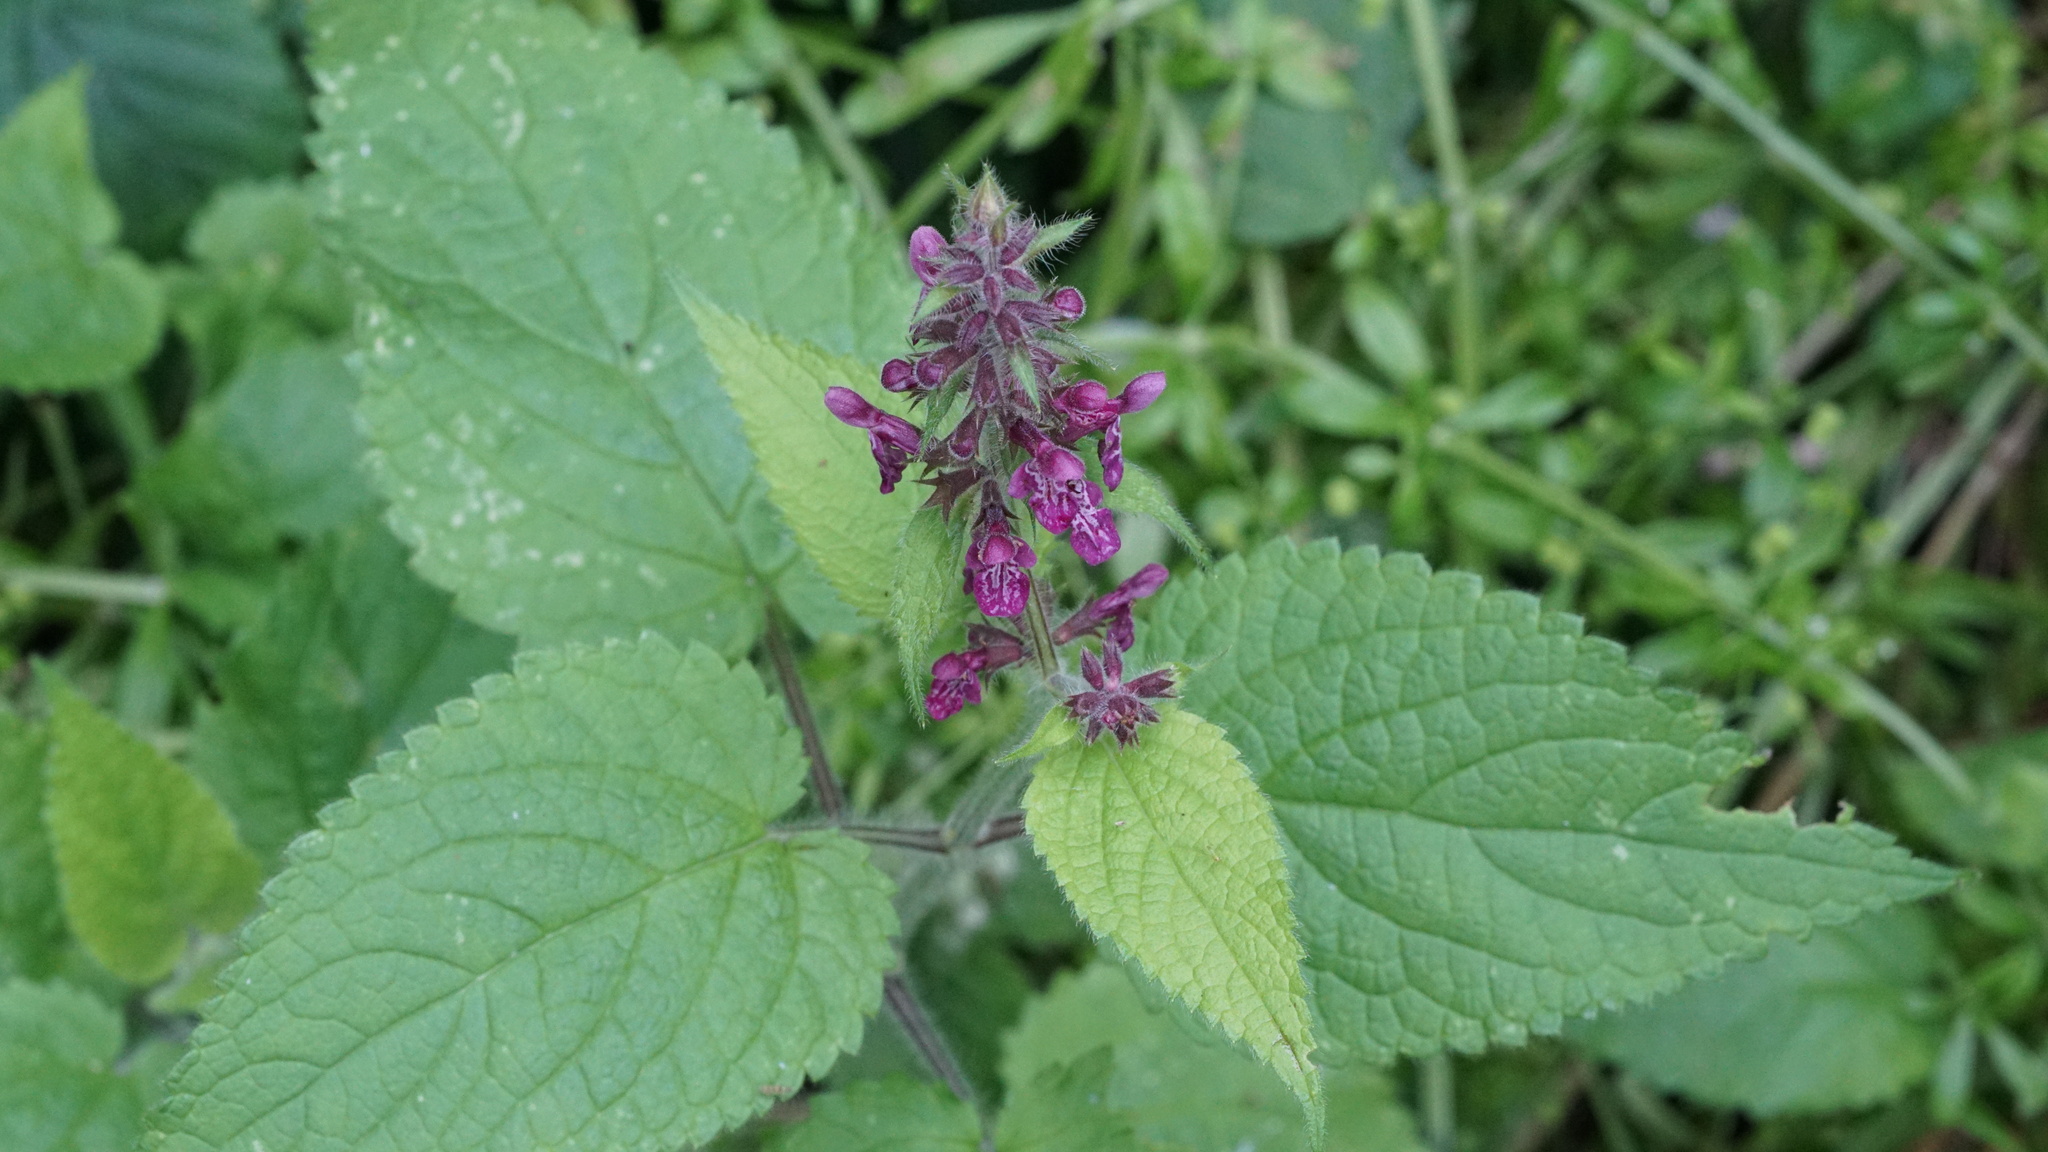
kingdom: Plantae
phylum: Tracheophyta
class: Magnoliopsida
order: Lamiales
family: Lamiaceae
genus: Stachys
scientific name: Stachys sylvatica
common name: Hedge woundwort
